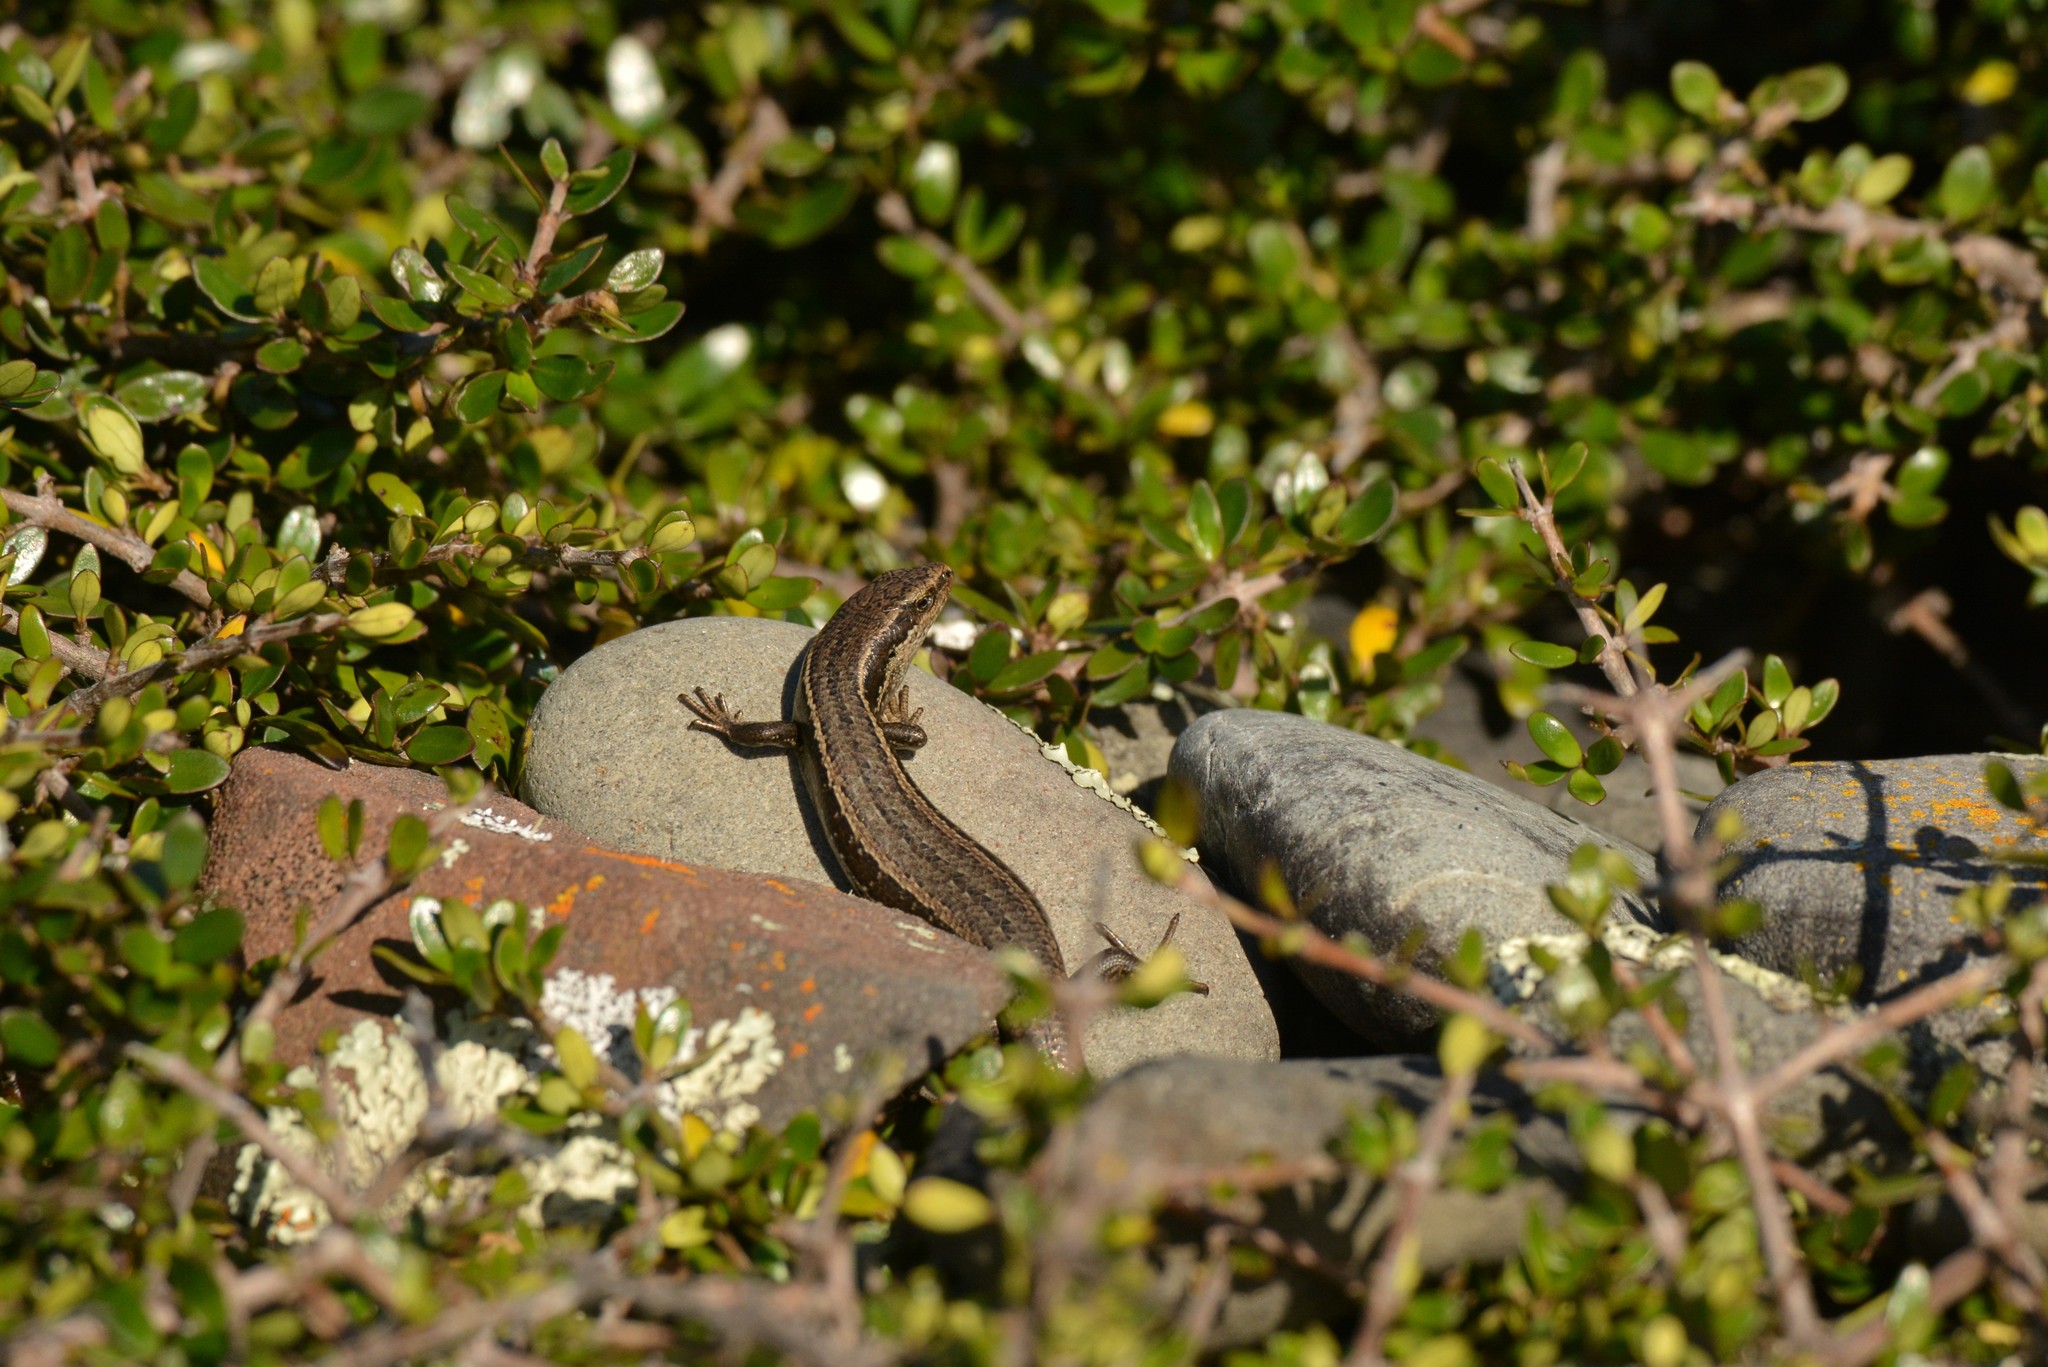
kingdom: Animalia
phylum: Chordata
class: Squamata
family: Scincidae
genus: Oligosoma
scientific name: Oligosoma polychroma
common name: Common new zealand skink
